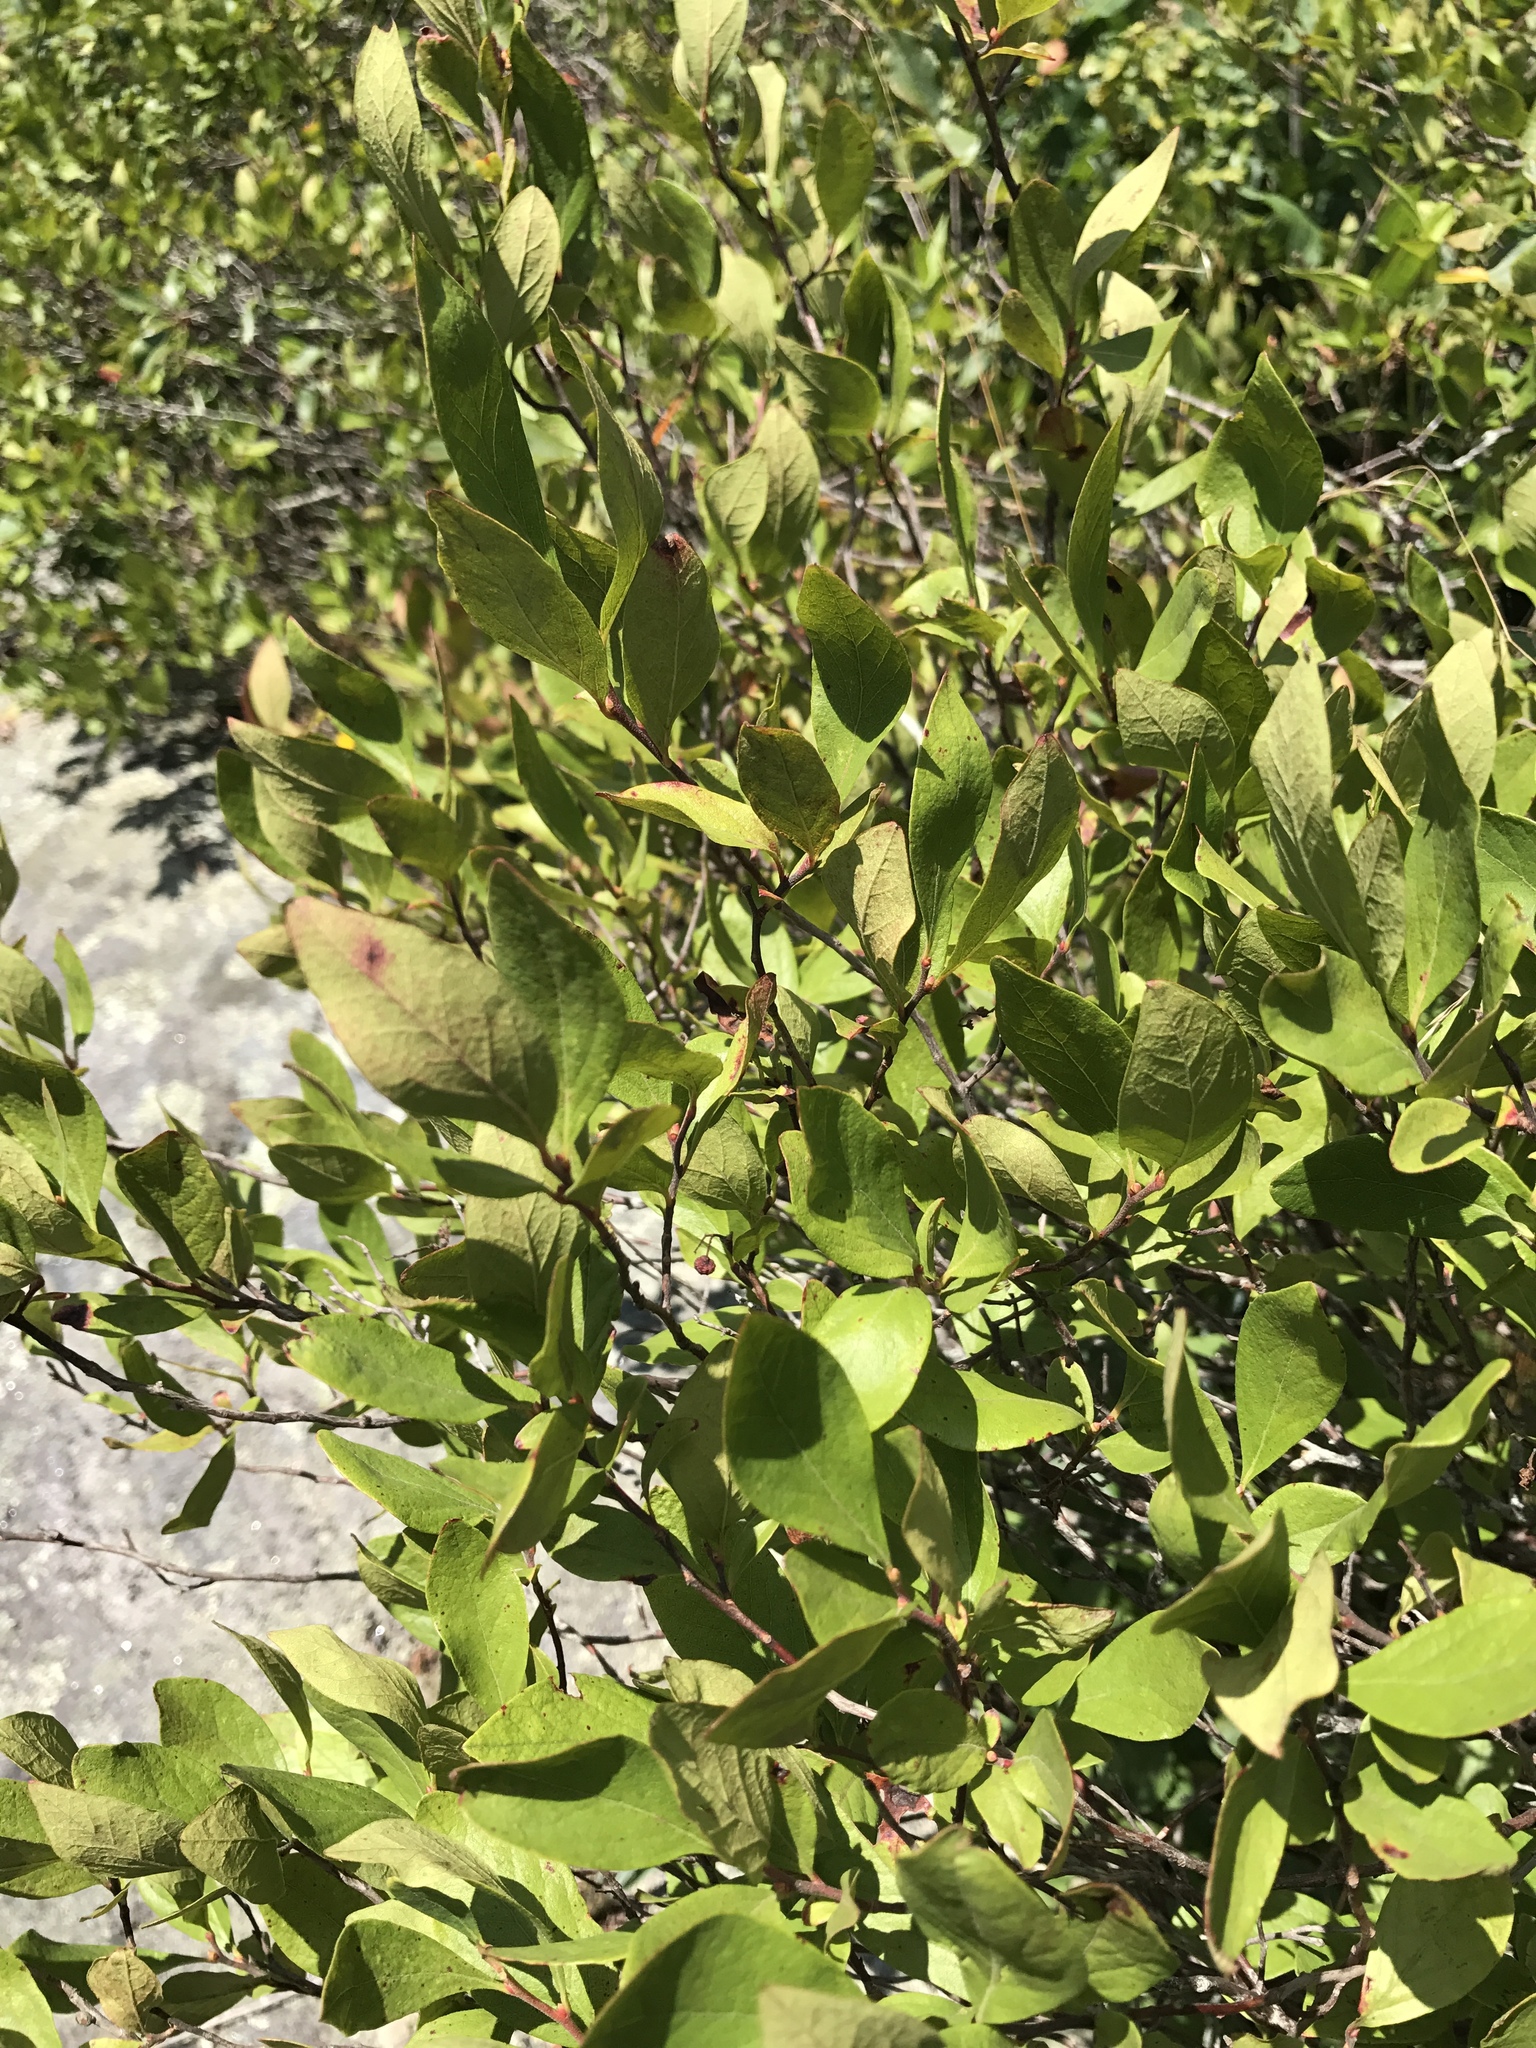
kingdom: Plantae
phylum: Tracheophyta
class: Magnoliopsida
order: Ericales
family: Ericaceae
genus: Gaylussacia
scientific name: Gaylussacia baccata
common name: Black huckleberry
